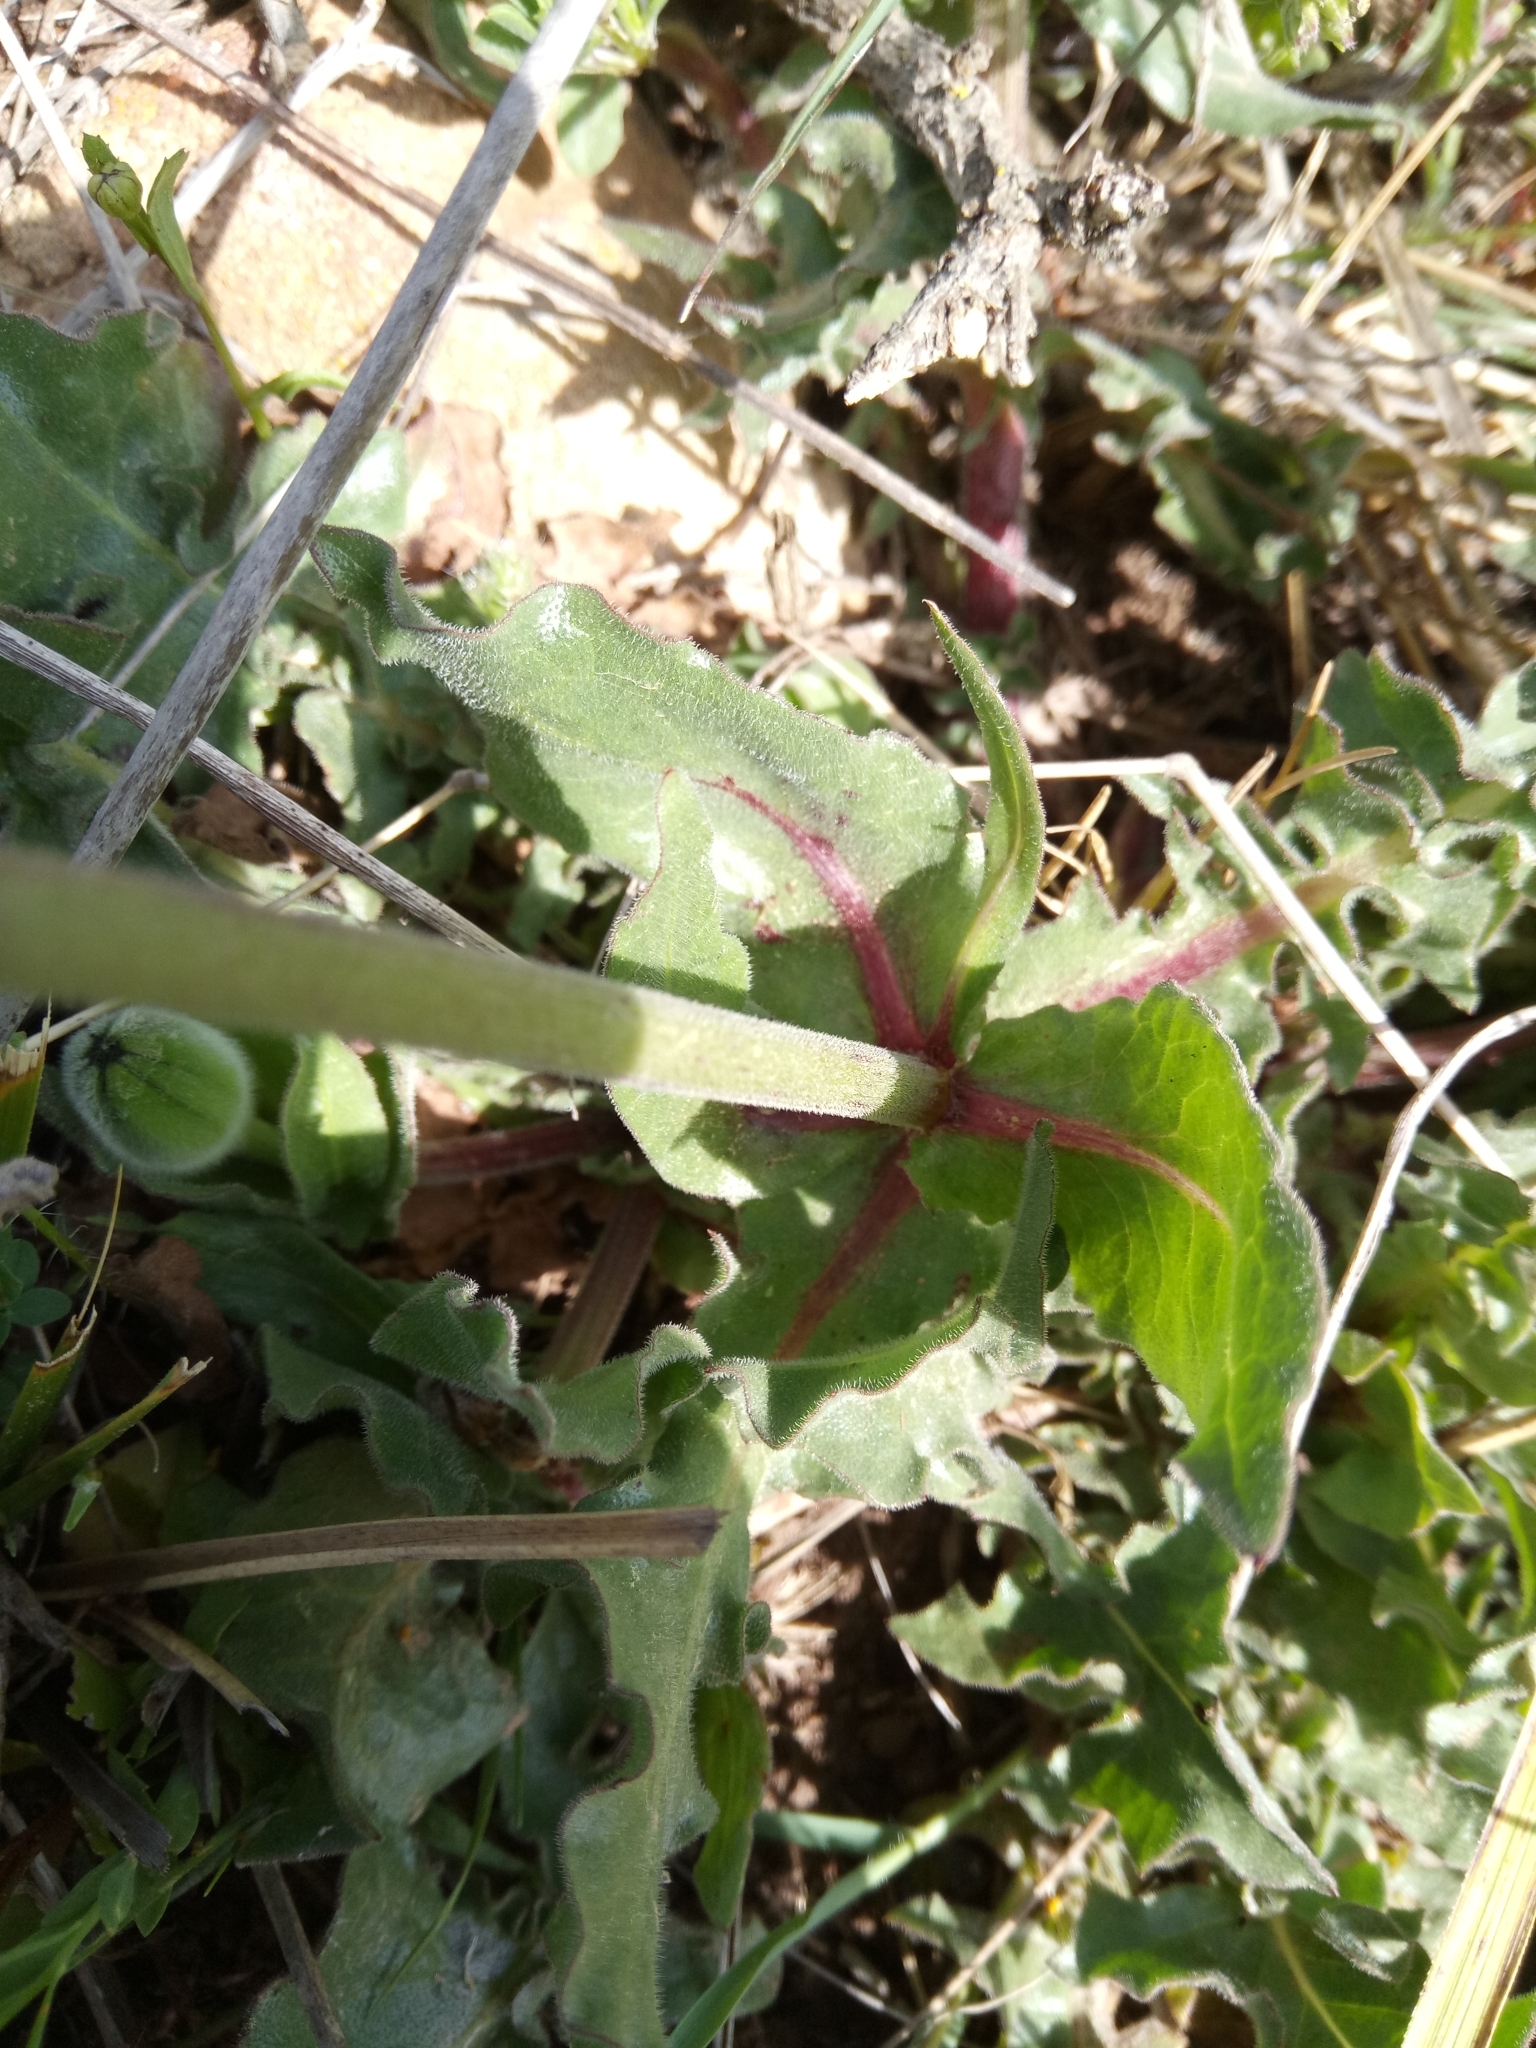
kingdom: Plantae
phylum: Tracheophyta
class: Magnoliopsida
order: Asterales
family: Asteraceae
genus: Urospermum
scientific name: Urospermum dalechampii
